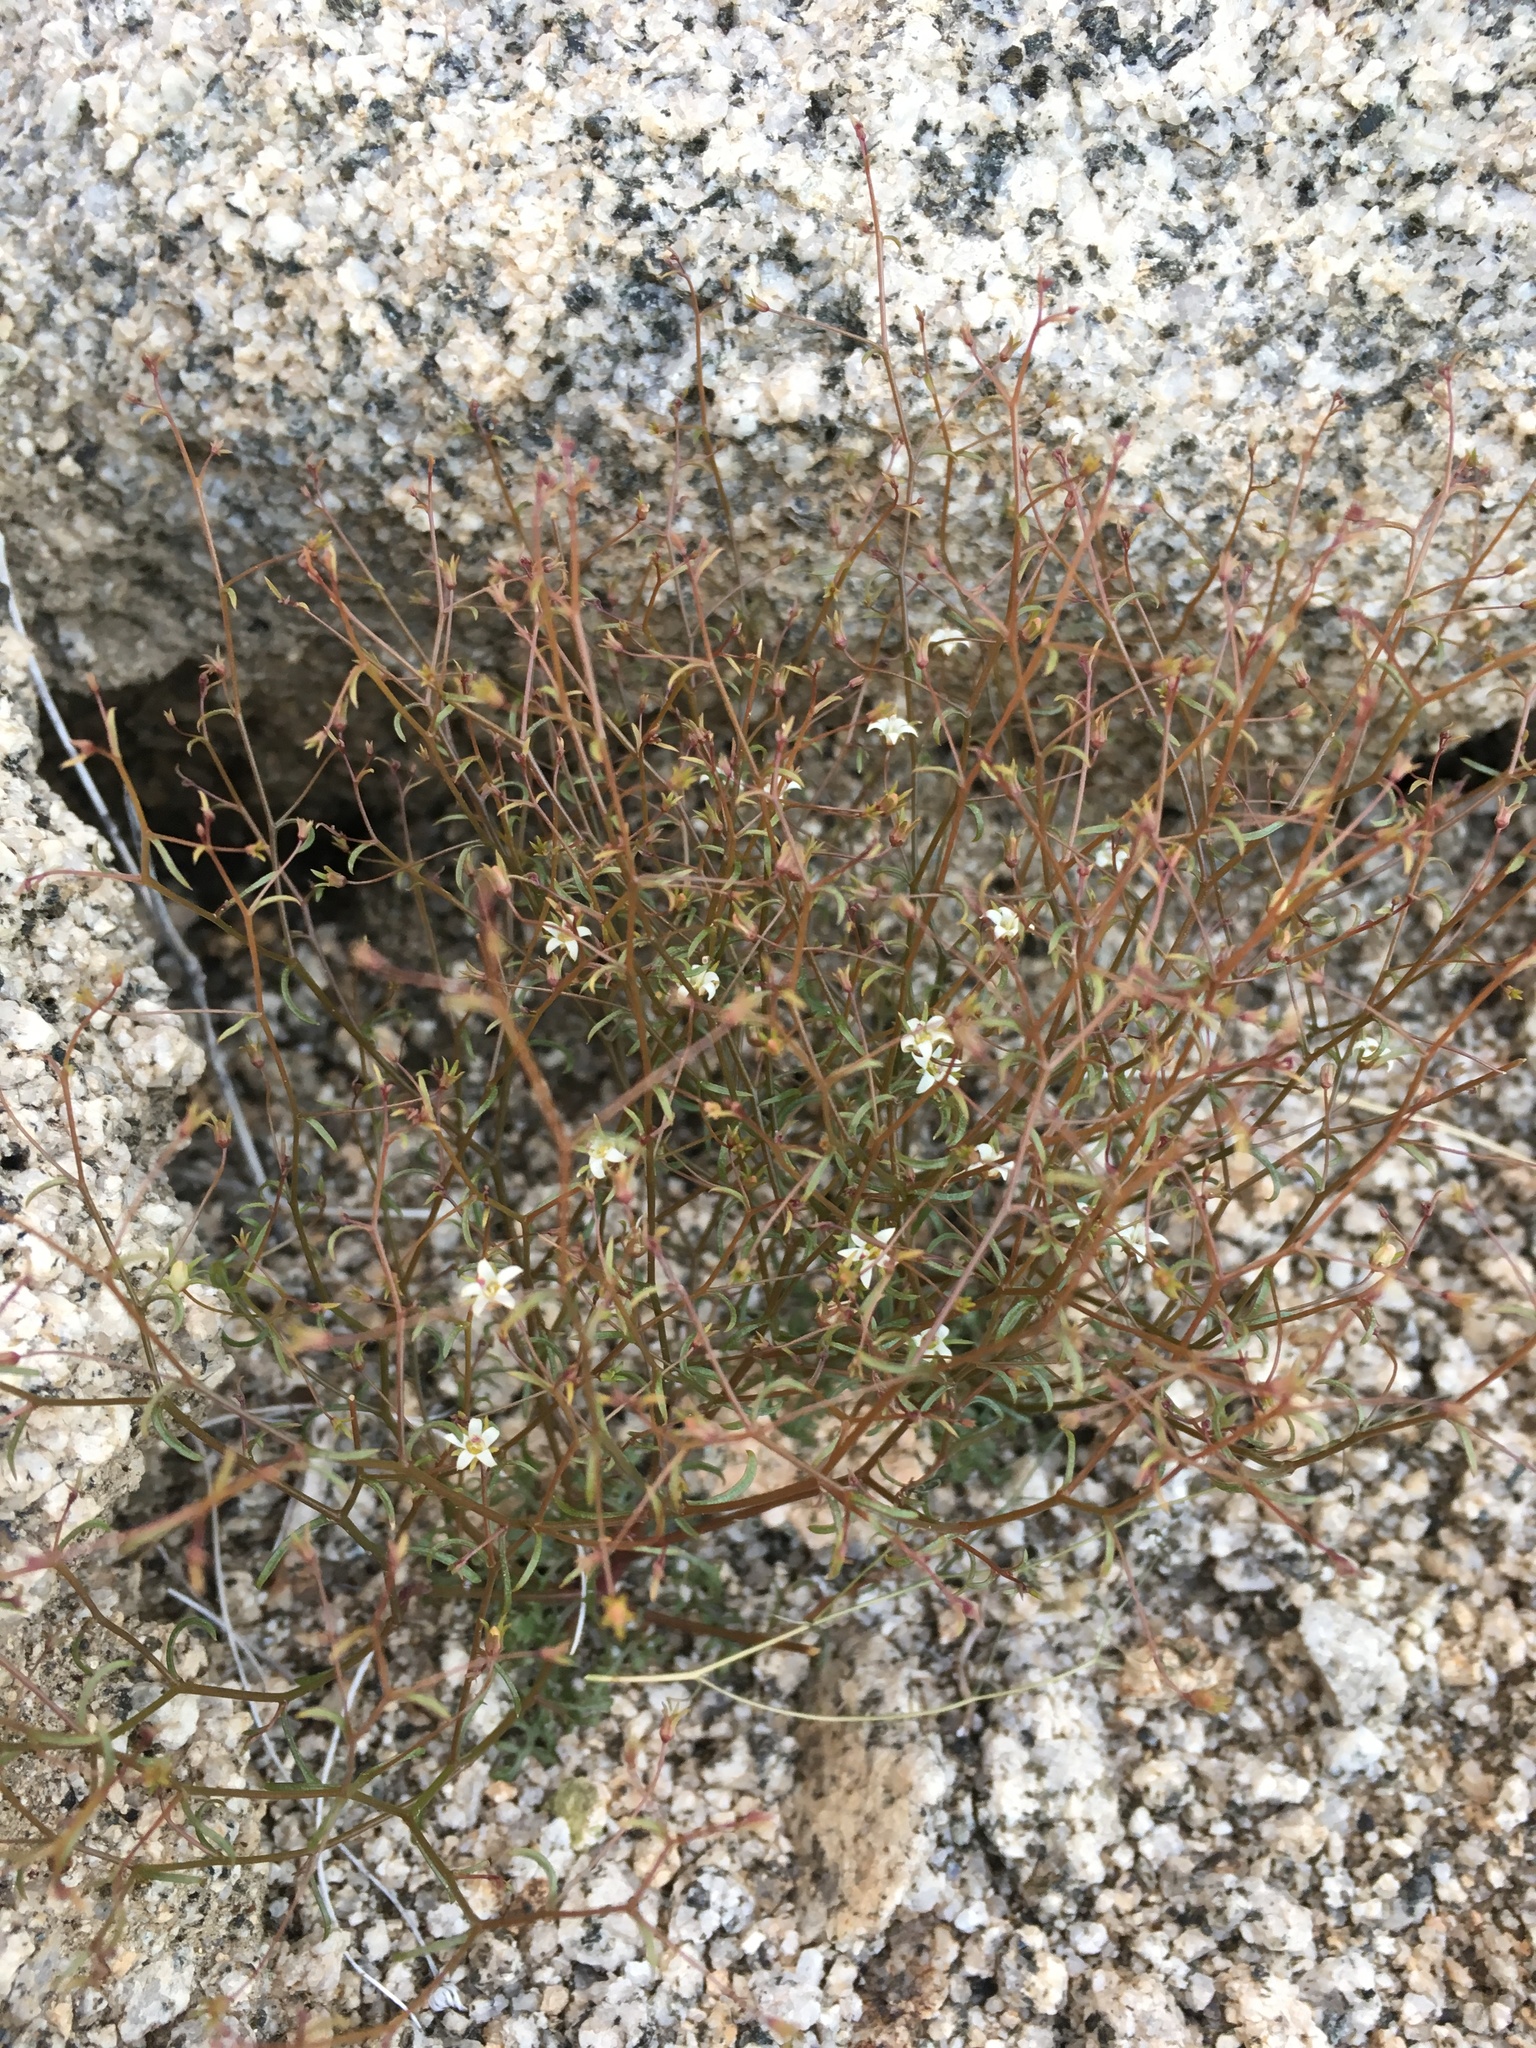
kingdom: Plantae
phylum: Tracheophyta
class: Magnoliopsida
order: Asterales
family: Campanulaceae
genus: Nemacladus
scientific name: Nemacladus glanduliferus
